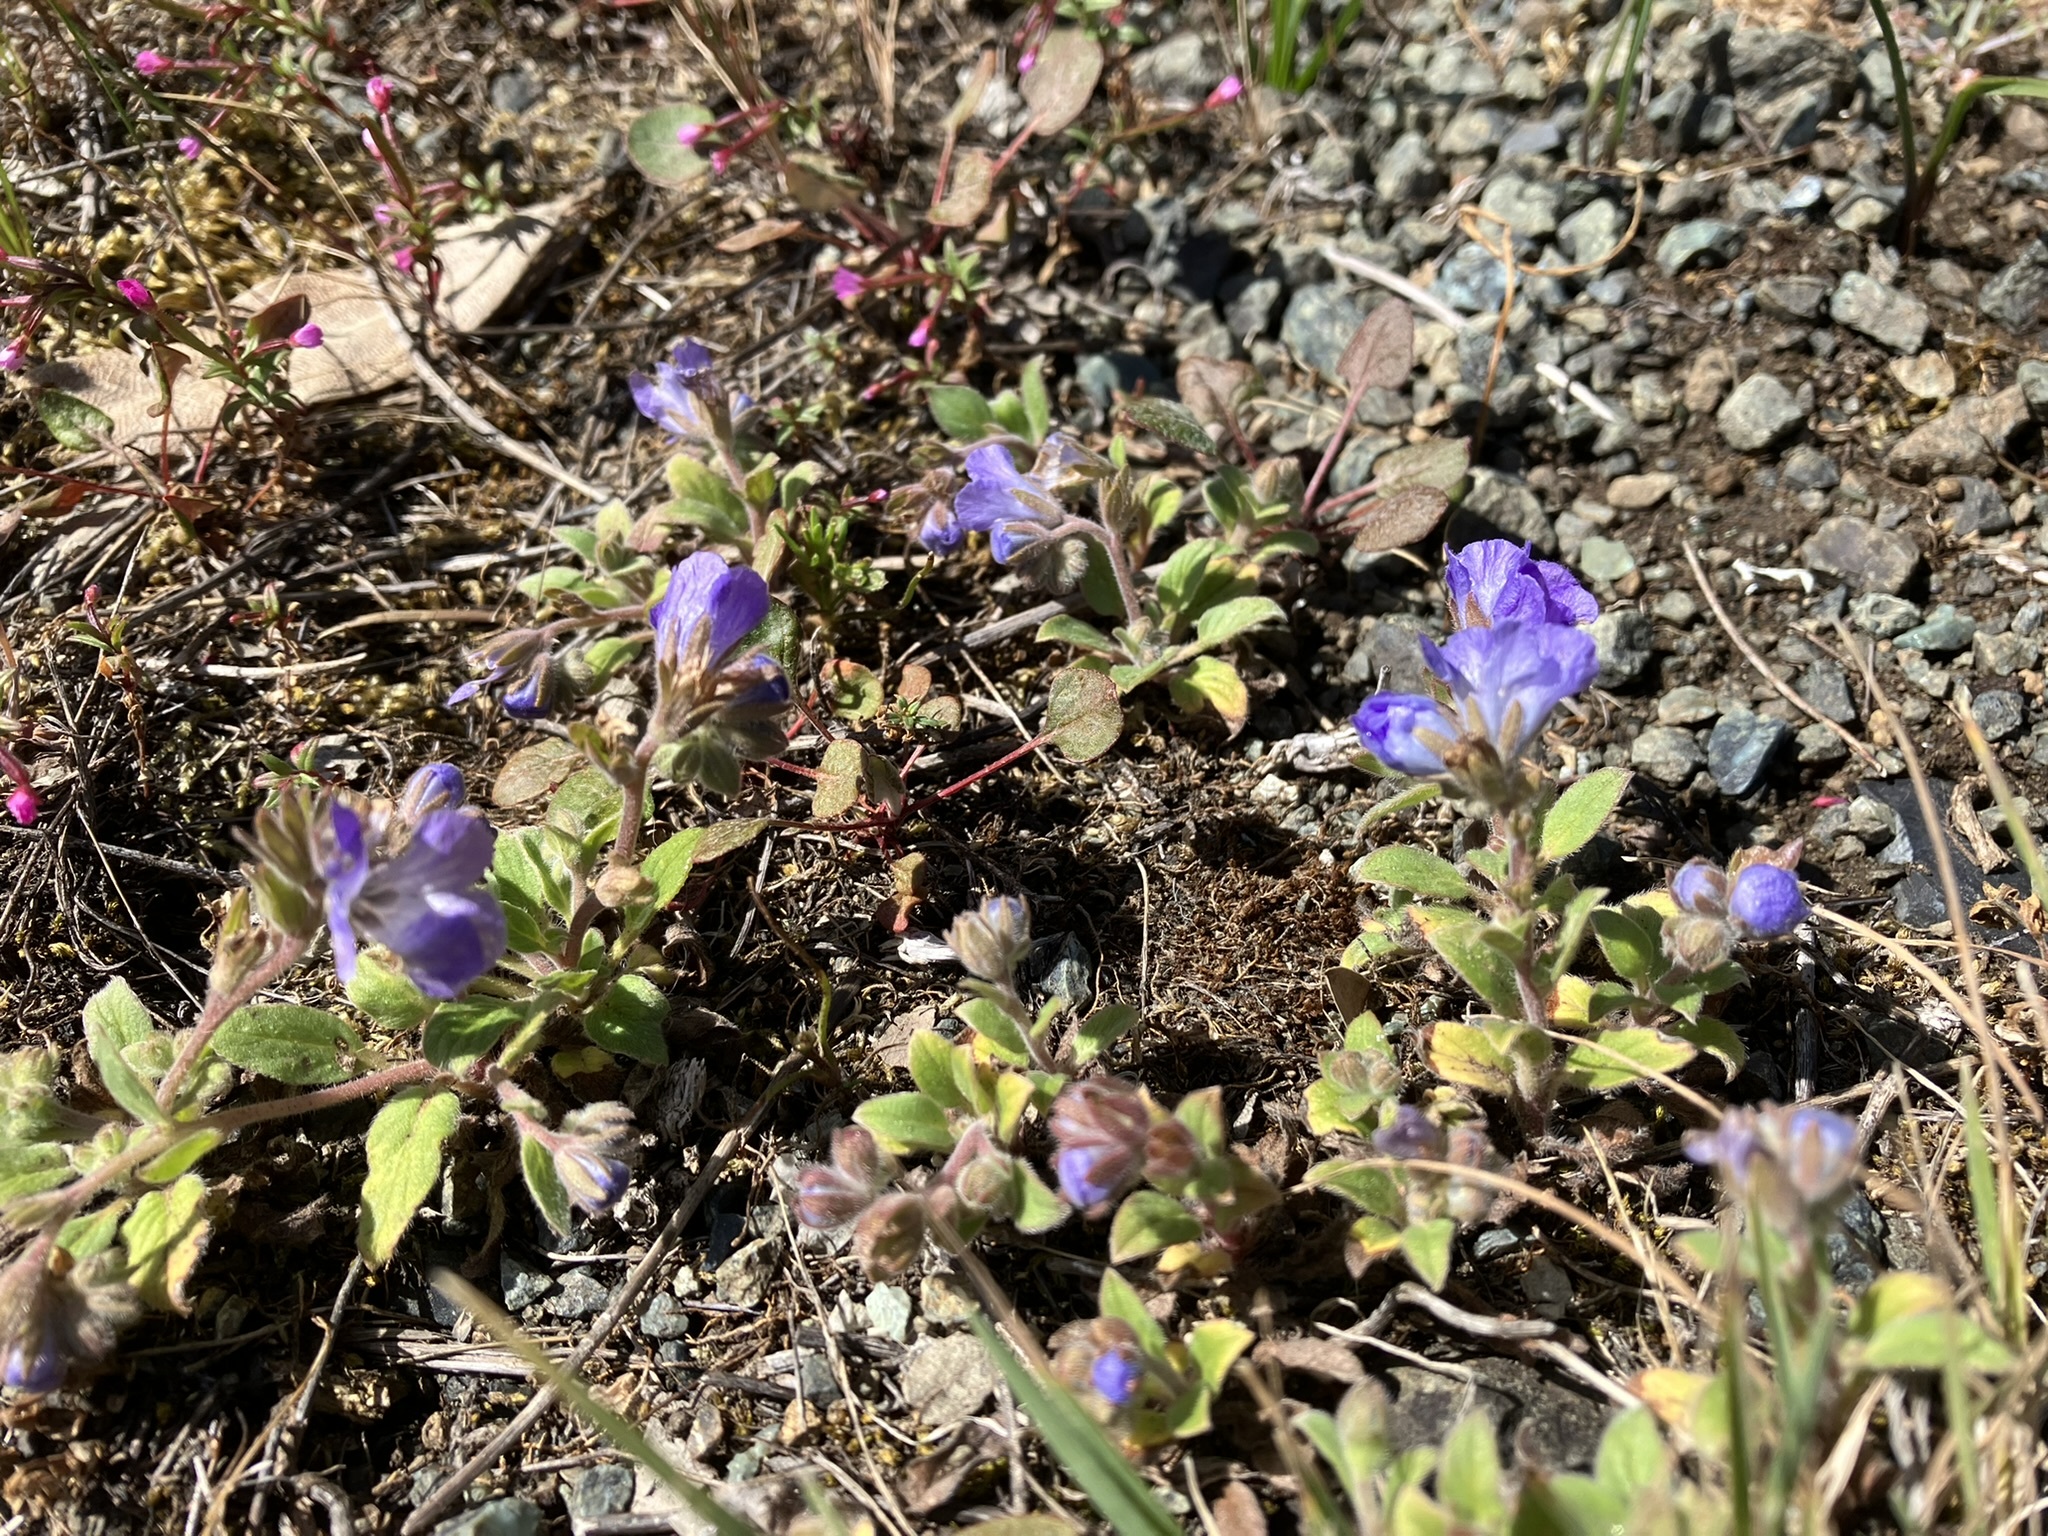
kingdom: Plantae
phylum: Tracheophyta
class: Magnoliopsida
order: Boraginales
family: Hydrophyllaceae
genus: Phacelia
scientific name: Phacelia divaricata
